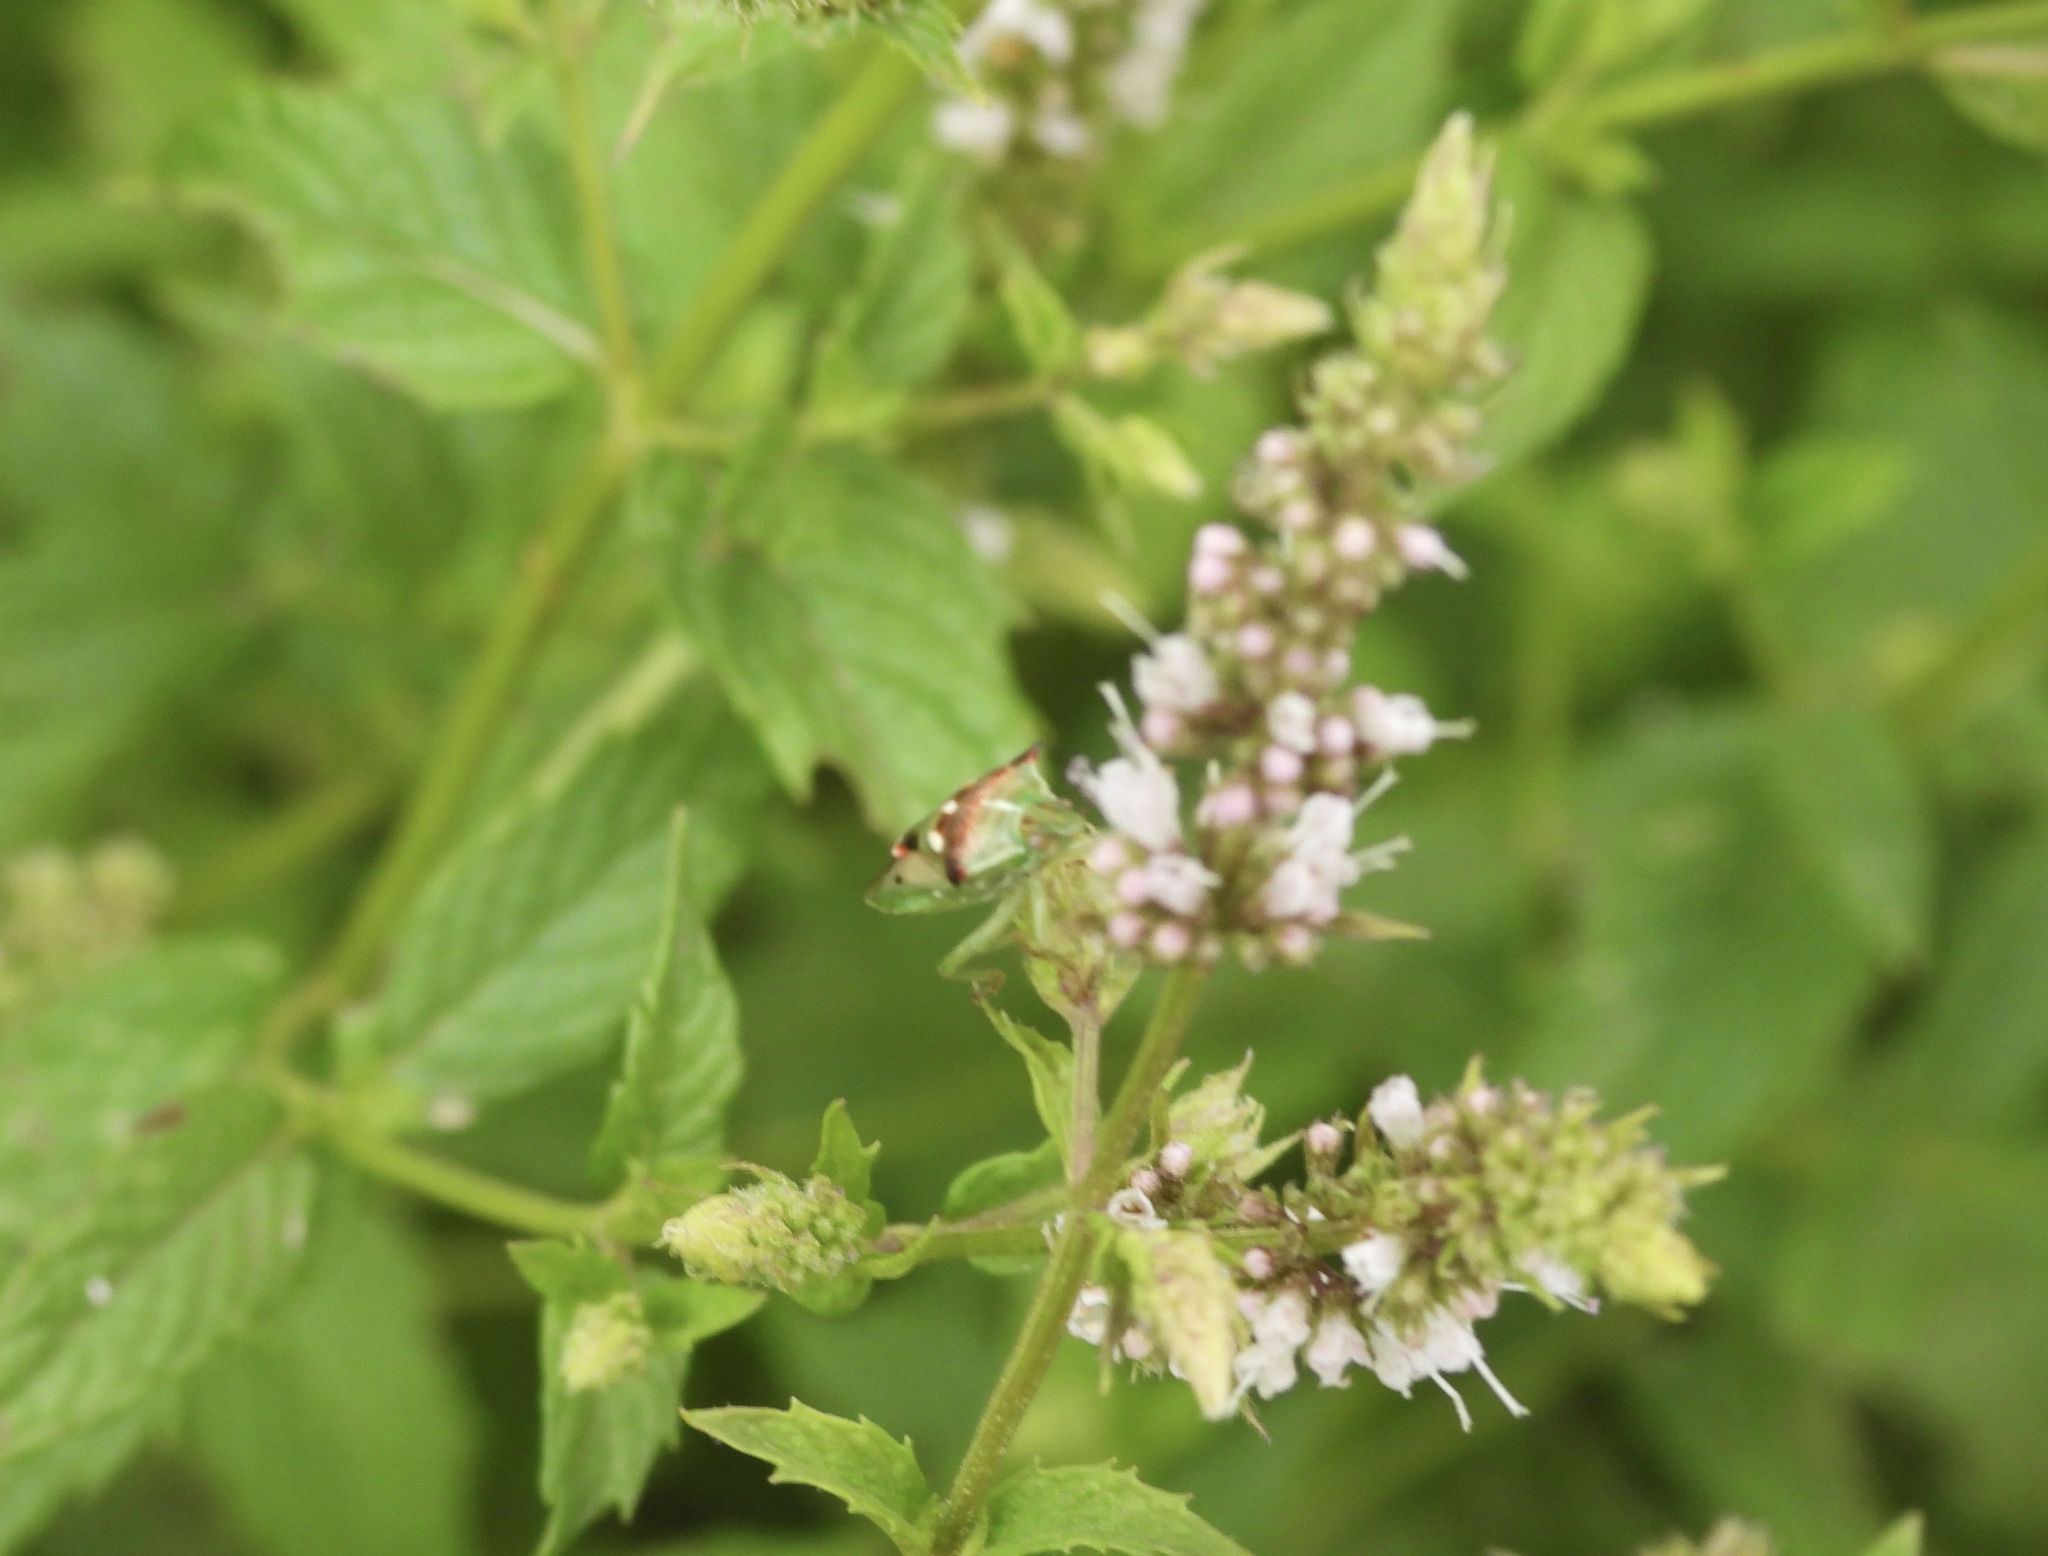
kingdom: Animalia
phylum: Arthropoda
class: Insecta
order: Hemiptera
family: Pentatomidae
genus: Tylospilus
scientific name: Tylospilus acutissimus
